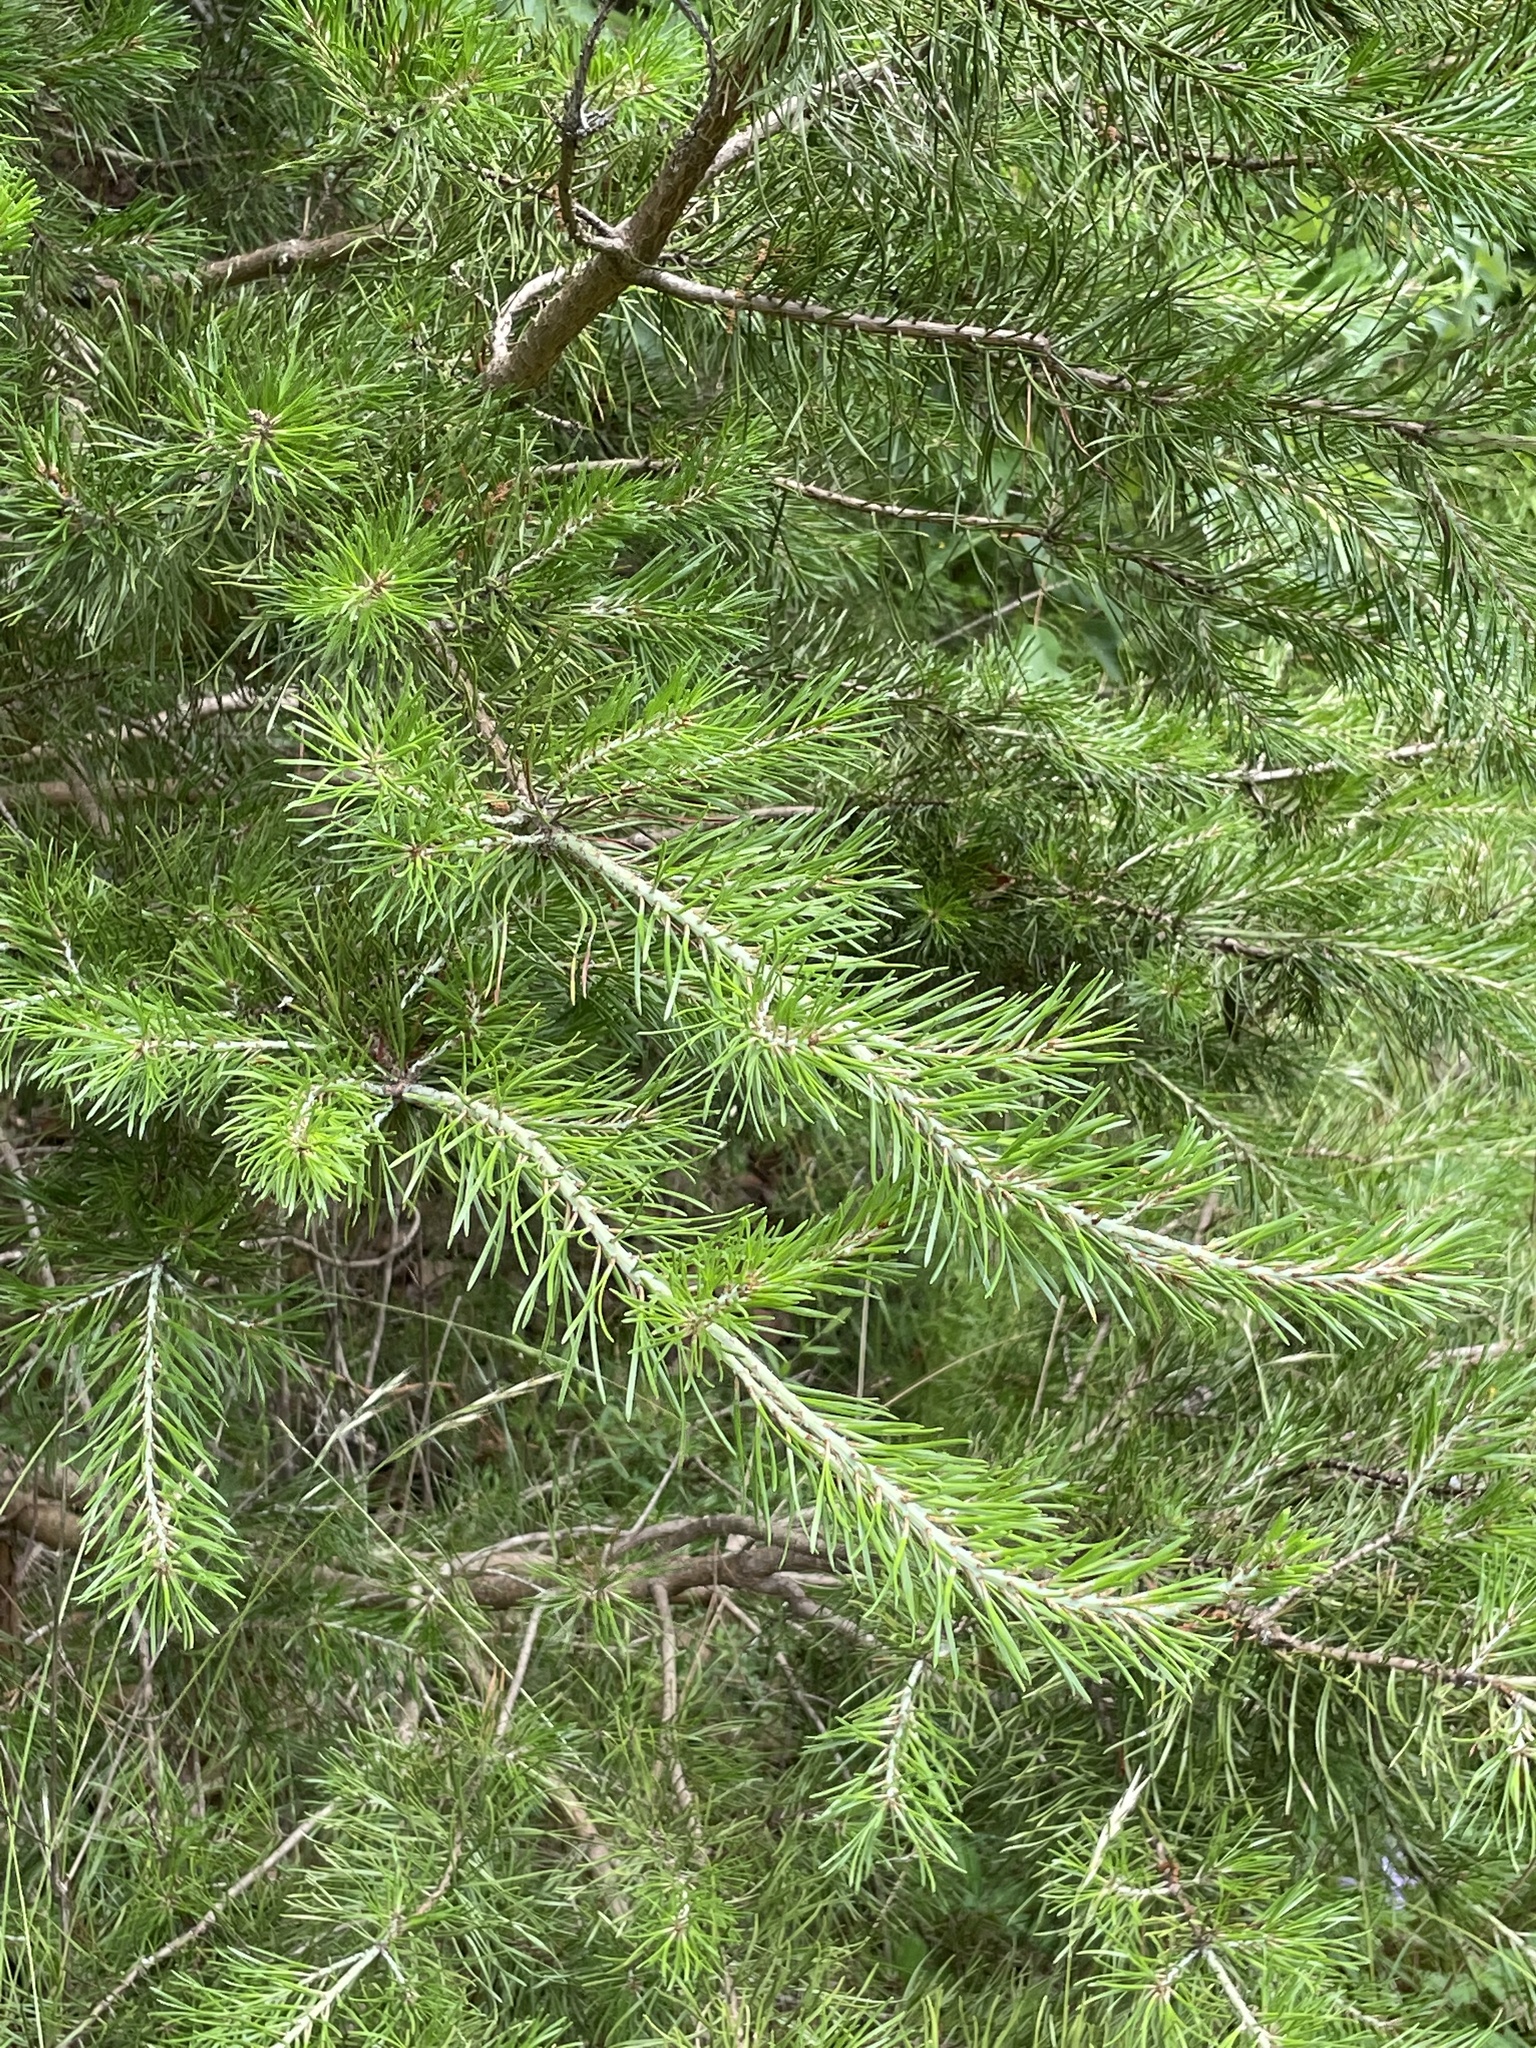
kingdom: Plantae
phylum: Tracheophyta
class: Pinopsida
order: Pinales
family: Pinaceae
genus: Pinus
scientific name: Pinus virginiana
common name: Scrub pine
